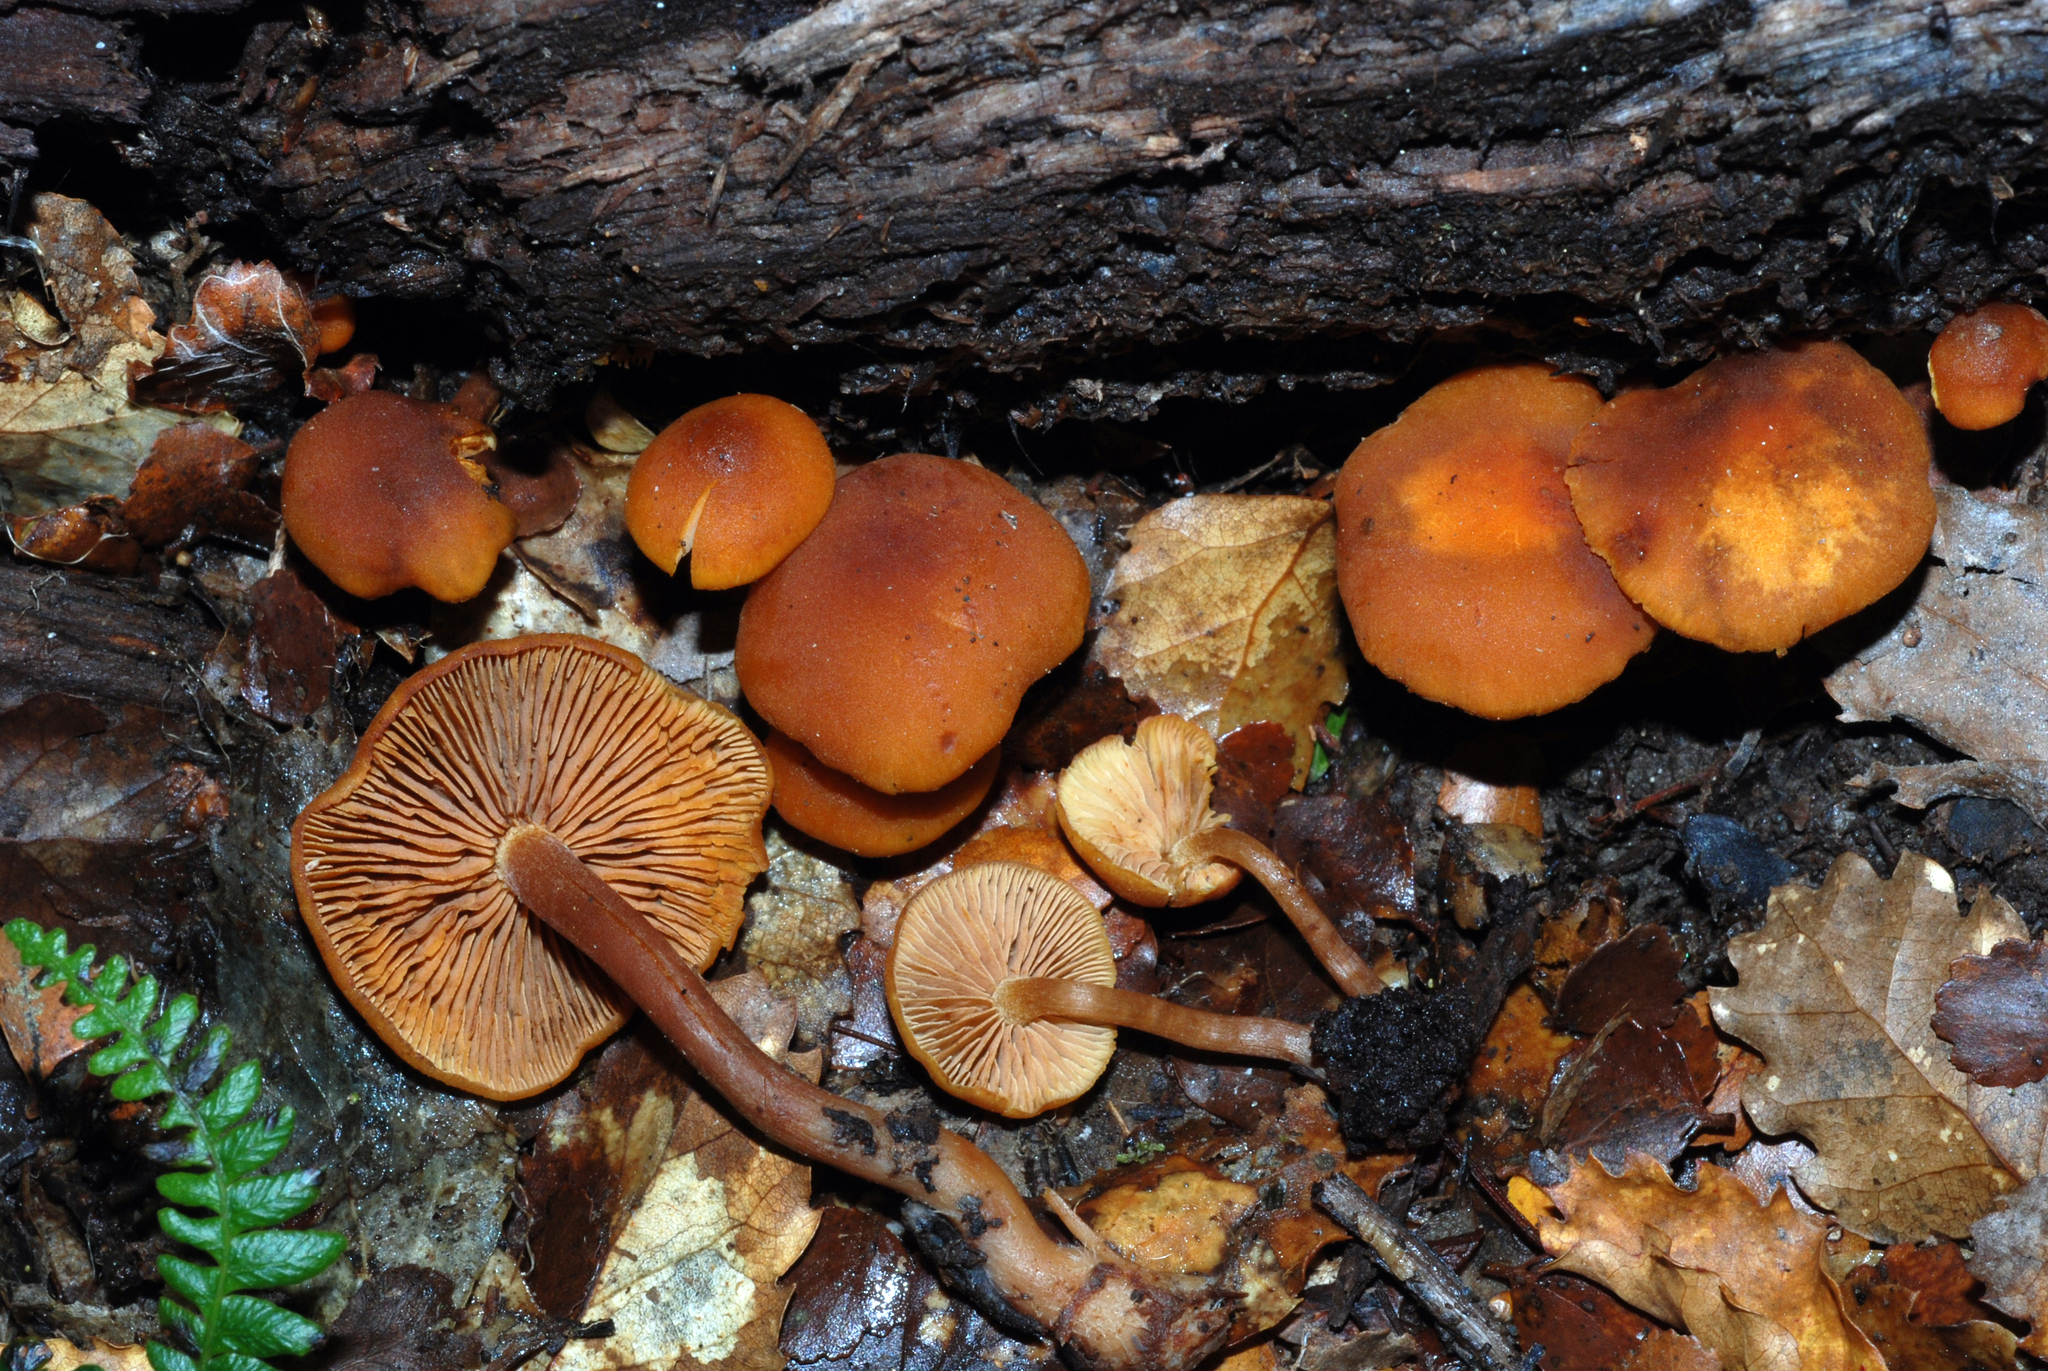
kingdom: Fungi
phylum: Basidiomycota
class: Agaricomycetes
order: Agaricales
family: Hymenogastraceae
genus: Gymnopilus
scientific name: Gymnopilus austropicreus
